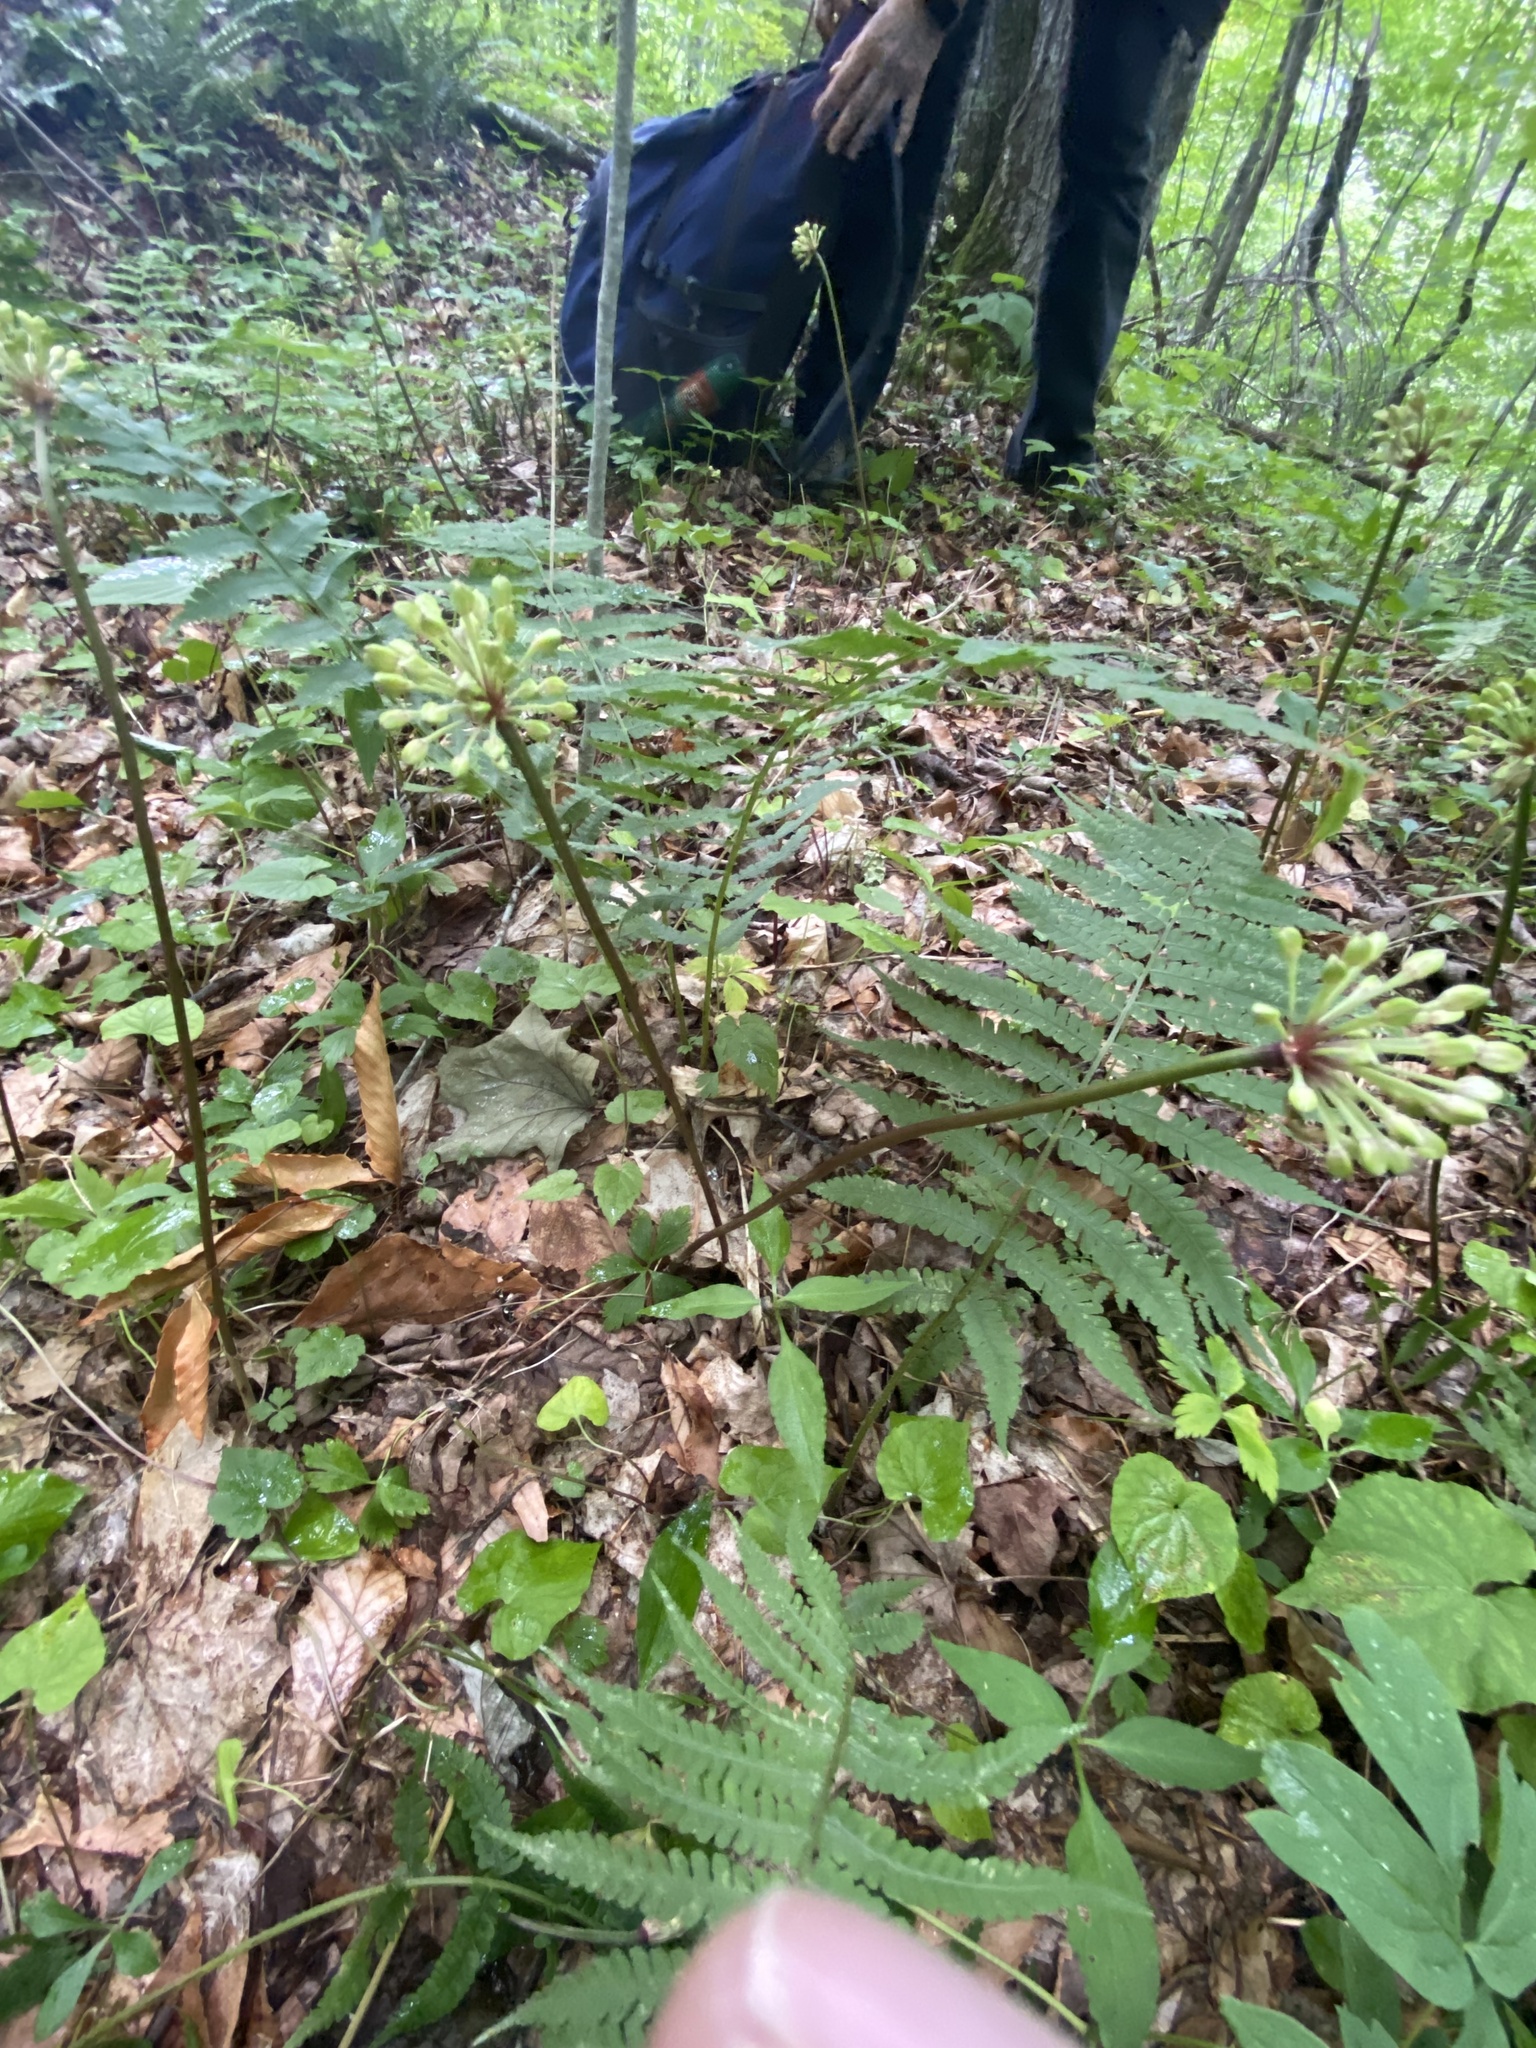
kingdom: Plantae
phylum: Tracheophyta
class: Liliopsida
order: Asparagales
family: Amaryllidaceae
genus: Allium
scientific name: Allium tricoccum
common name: Ramp
